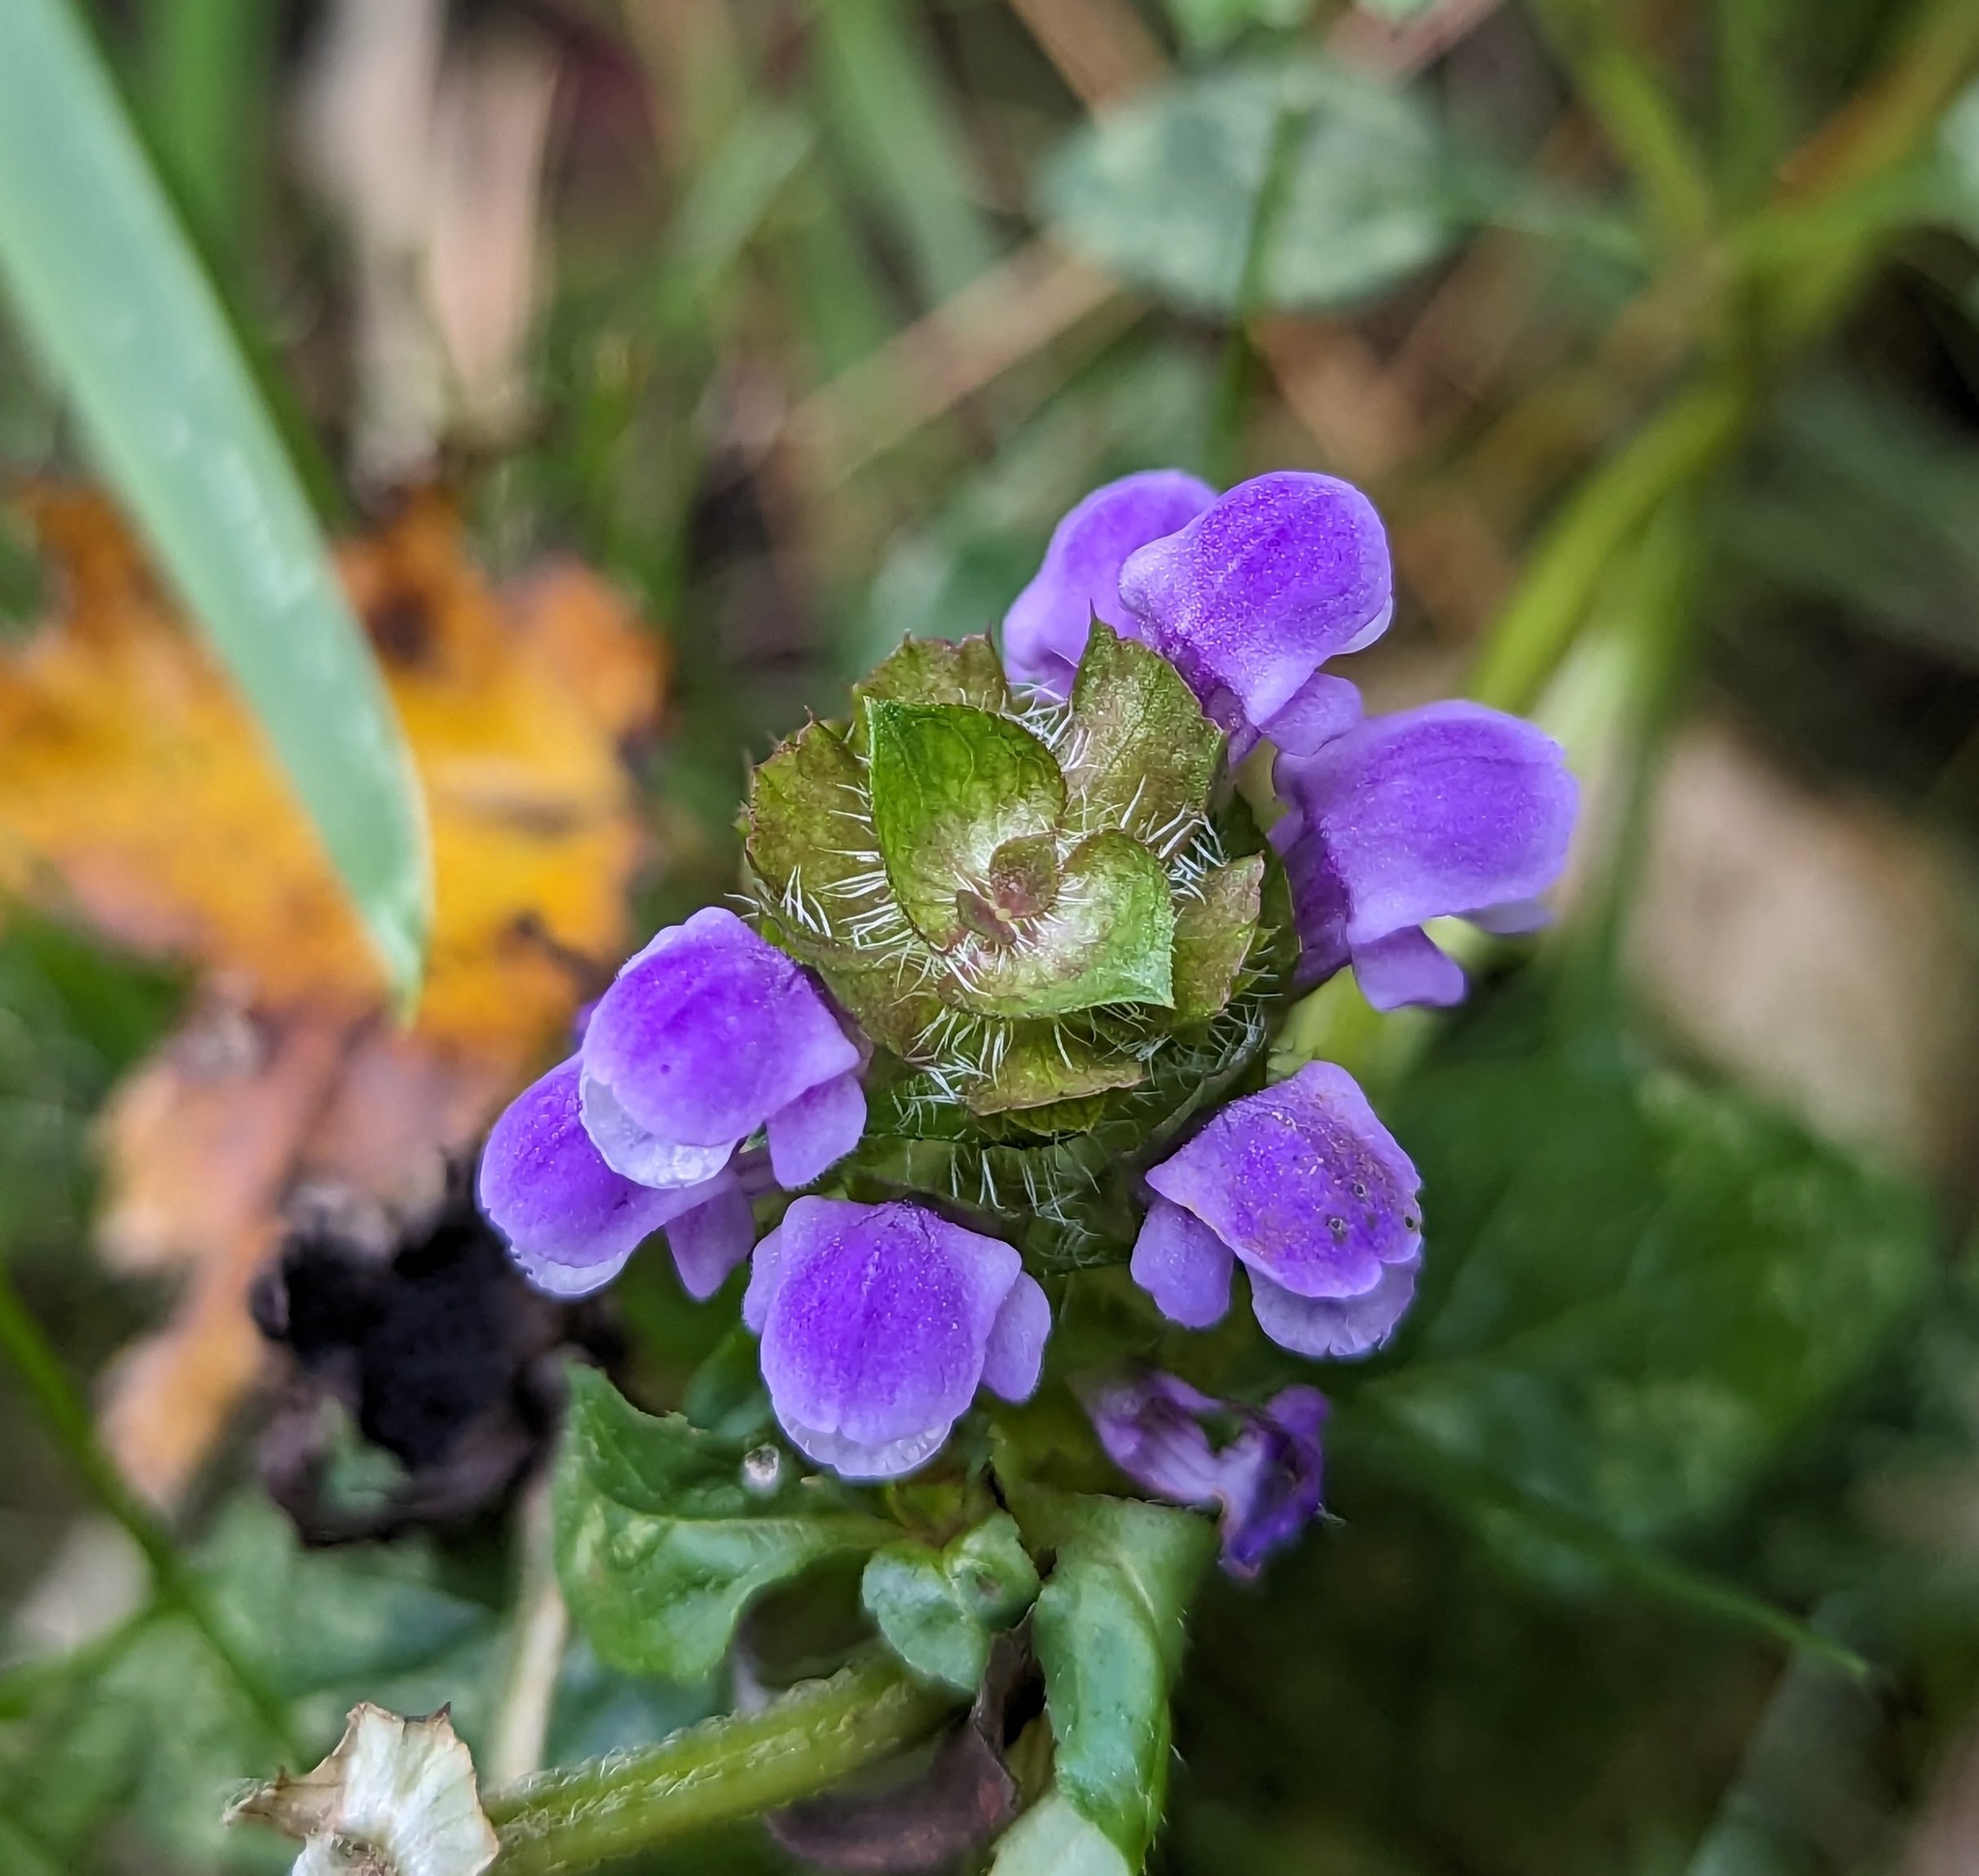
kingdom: Plantae
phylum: Tracheophyta
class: Magnoliopsida
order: Lamiales
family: Lamiaceae
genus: Prunella
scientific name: Prunella vulgaris
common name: Heal-all
